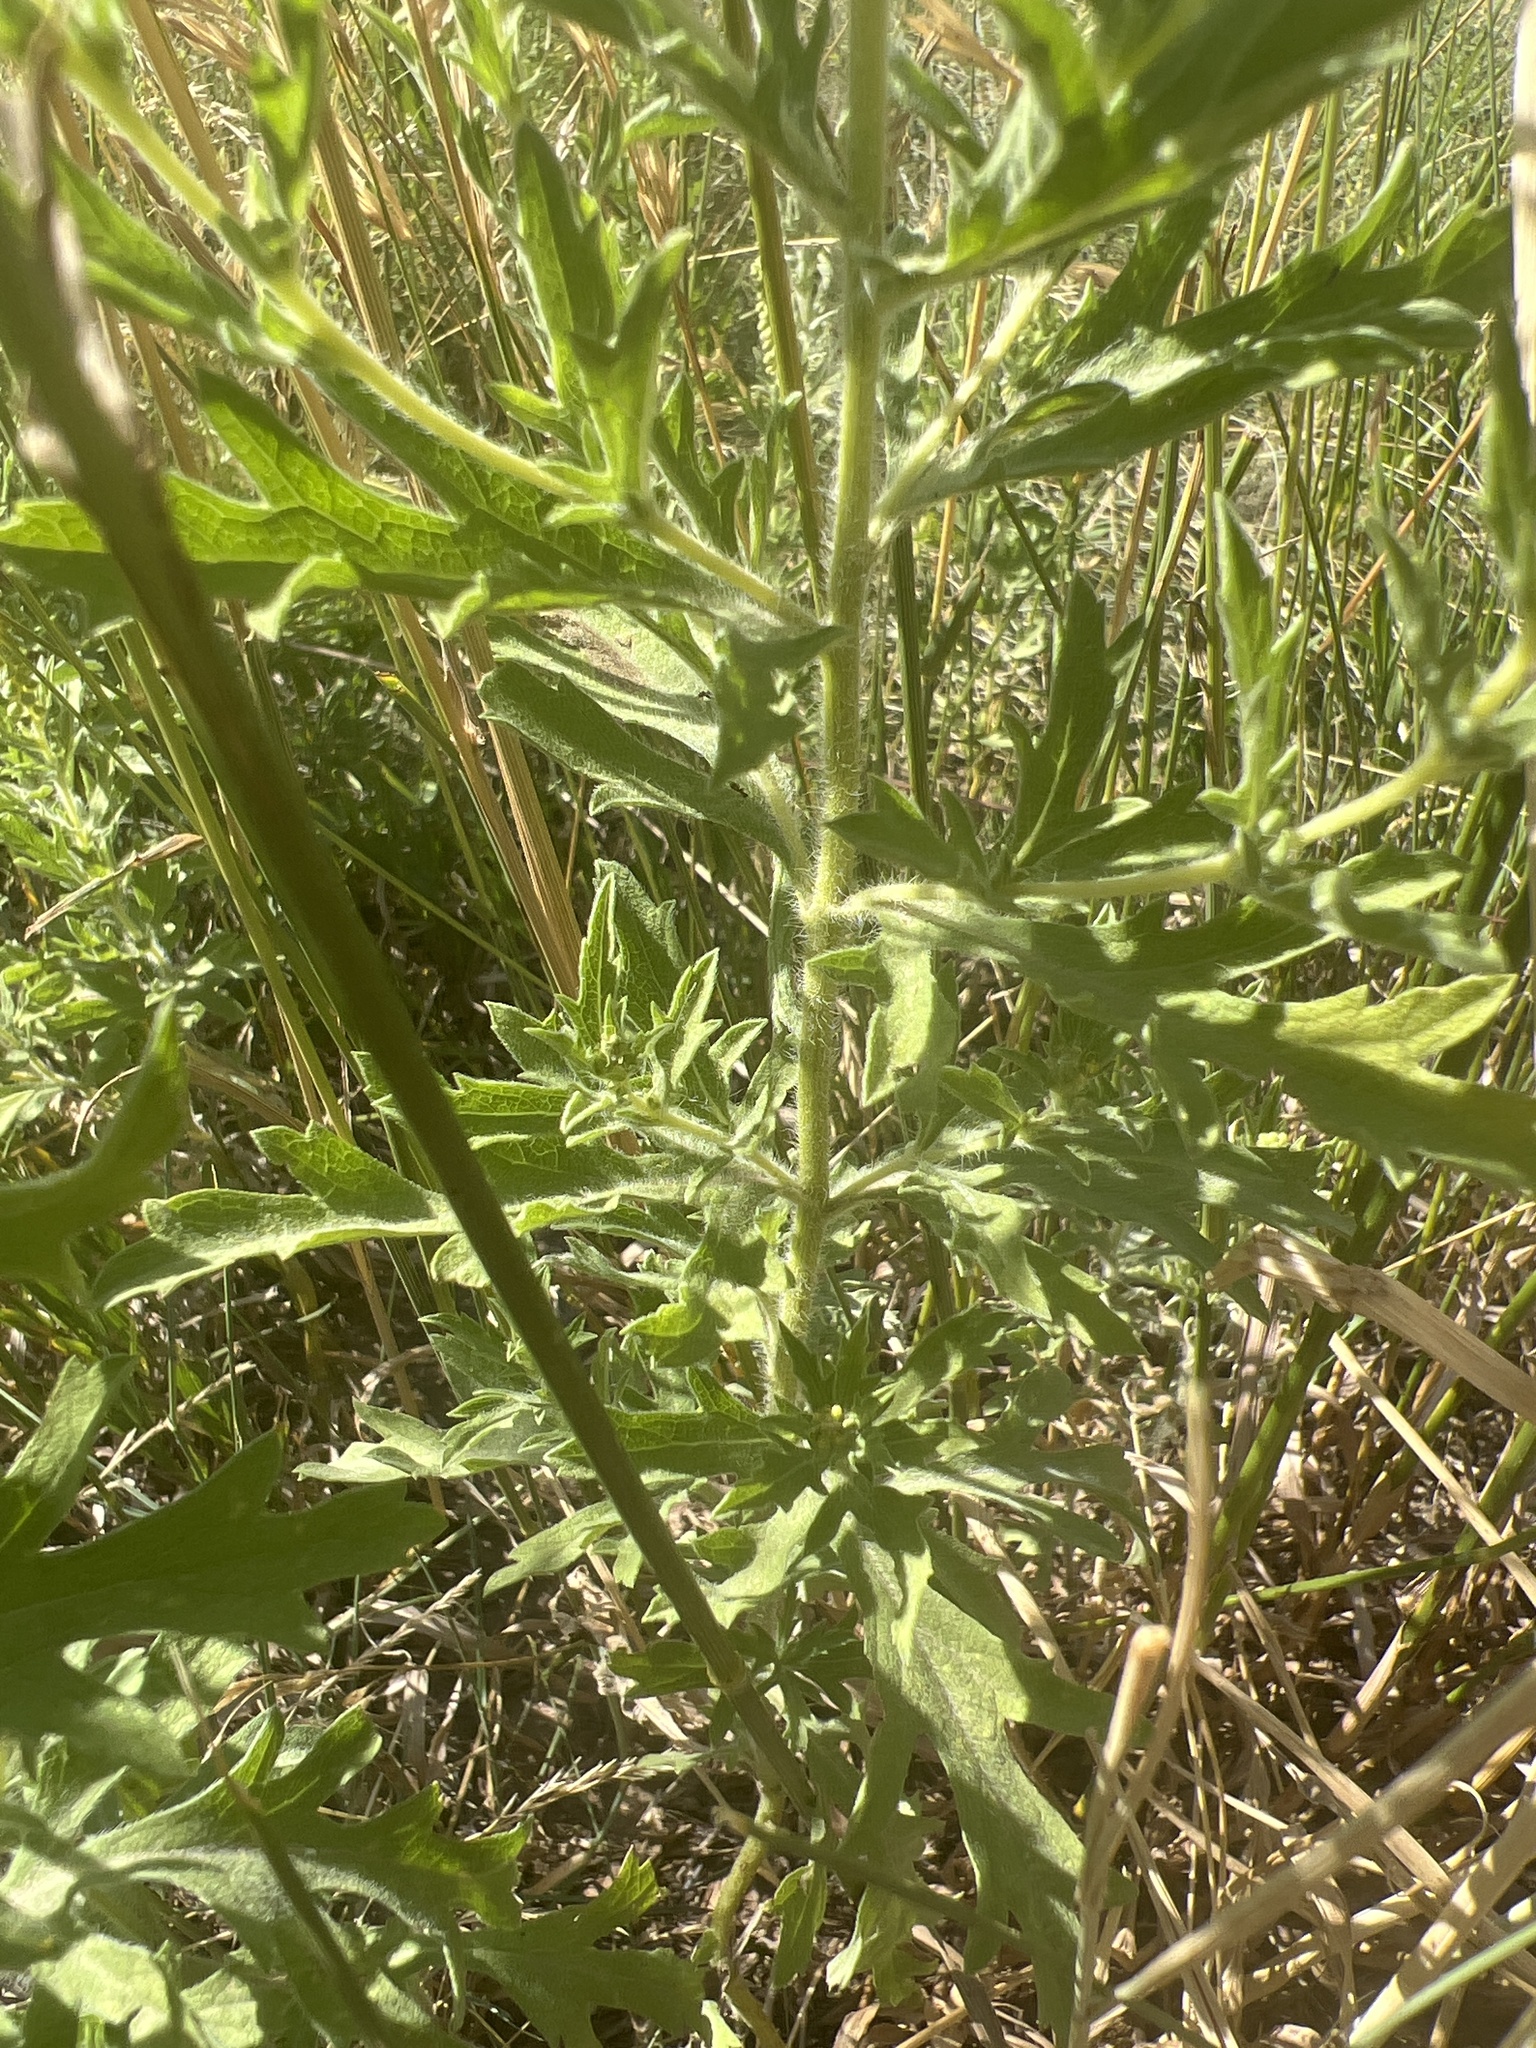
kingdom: Plantae
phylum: Tracheophyta
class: Magnoliopsida
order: Asterales
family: Asteraceae
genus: Ambrosia
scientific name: Ambrosia psilostachya
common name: Perennial ragweed
